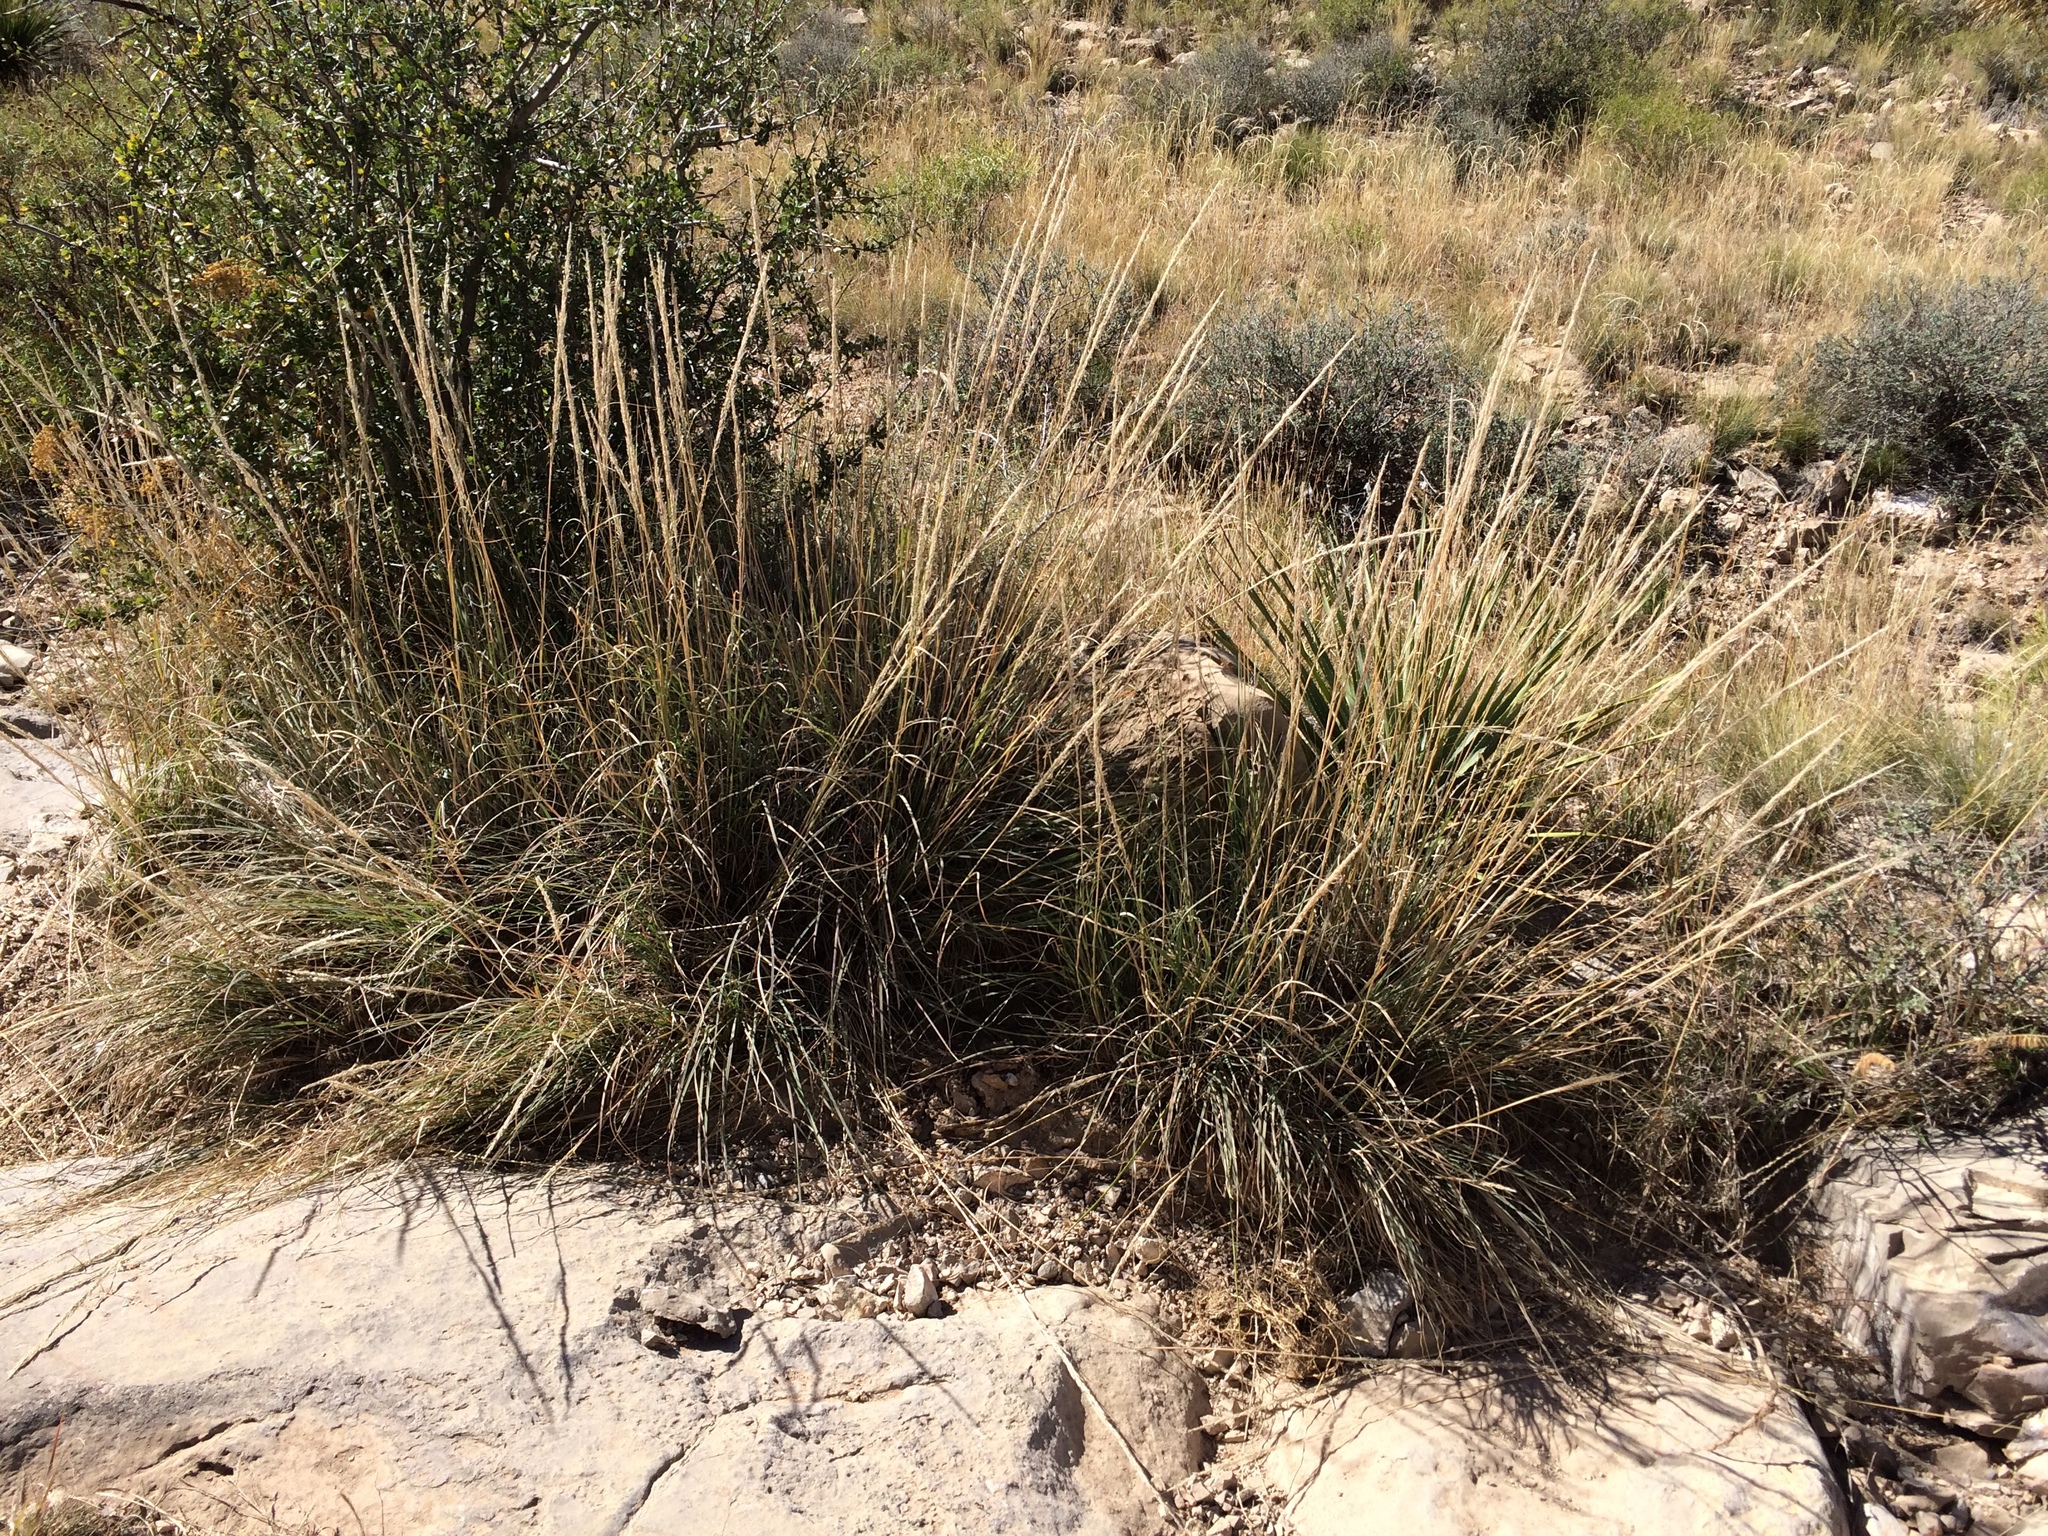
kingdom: Plantae
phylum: Tracheophyta
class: Liliopsida
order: Poales
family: Poaceae
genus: Muhlenbergia
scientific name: Muhlenbergia emersleyi
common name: Bull grass
